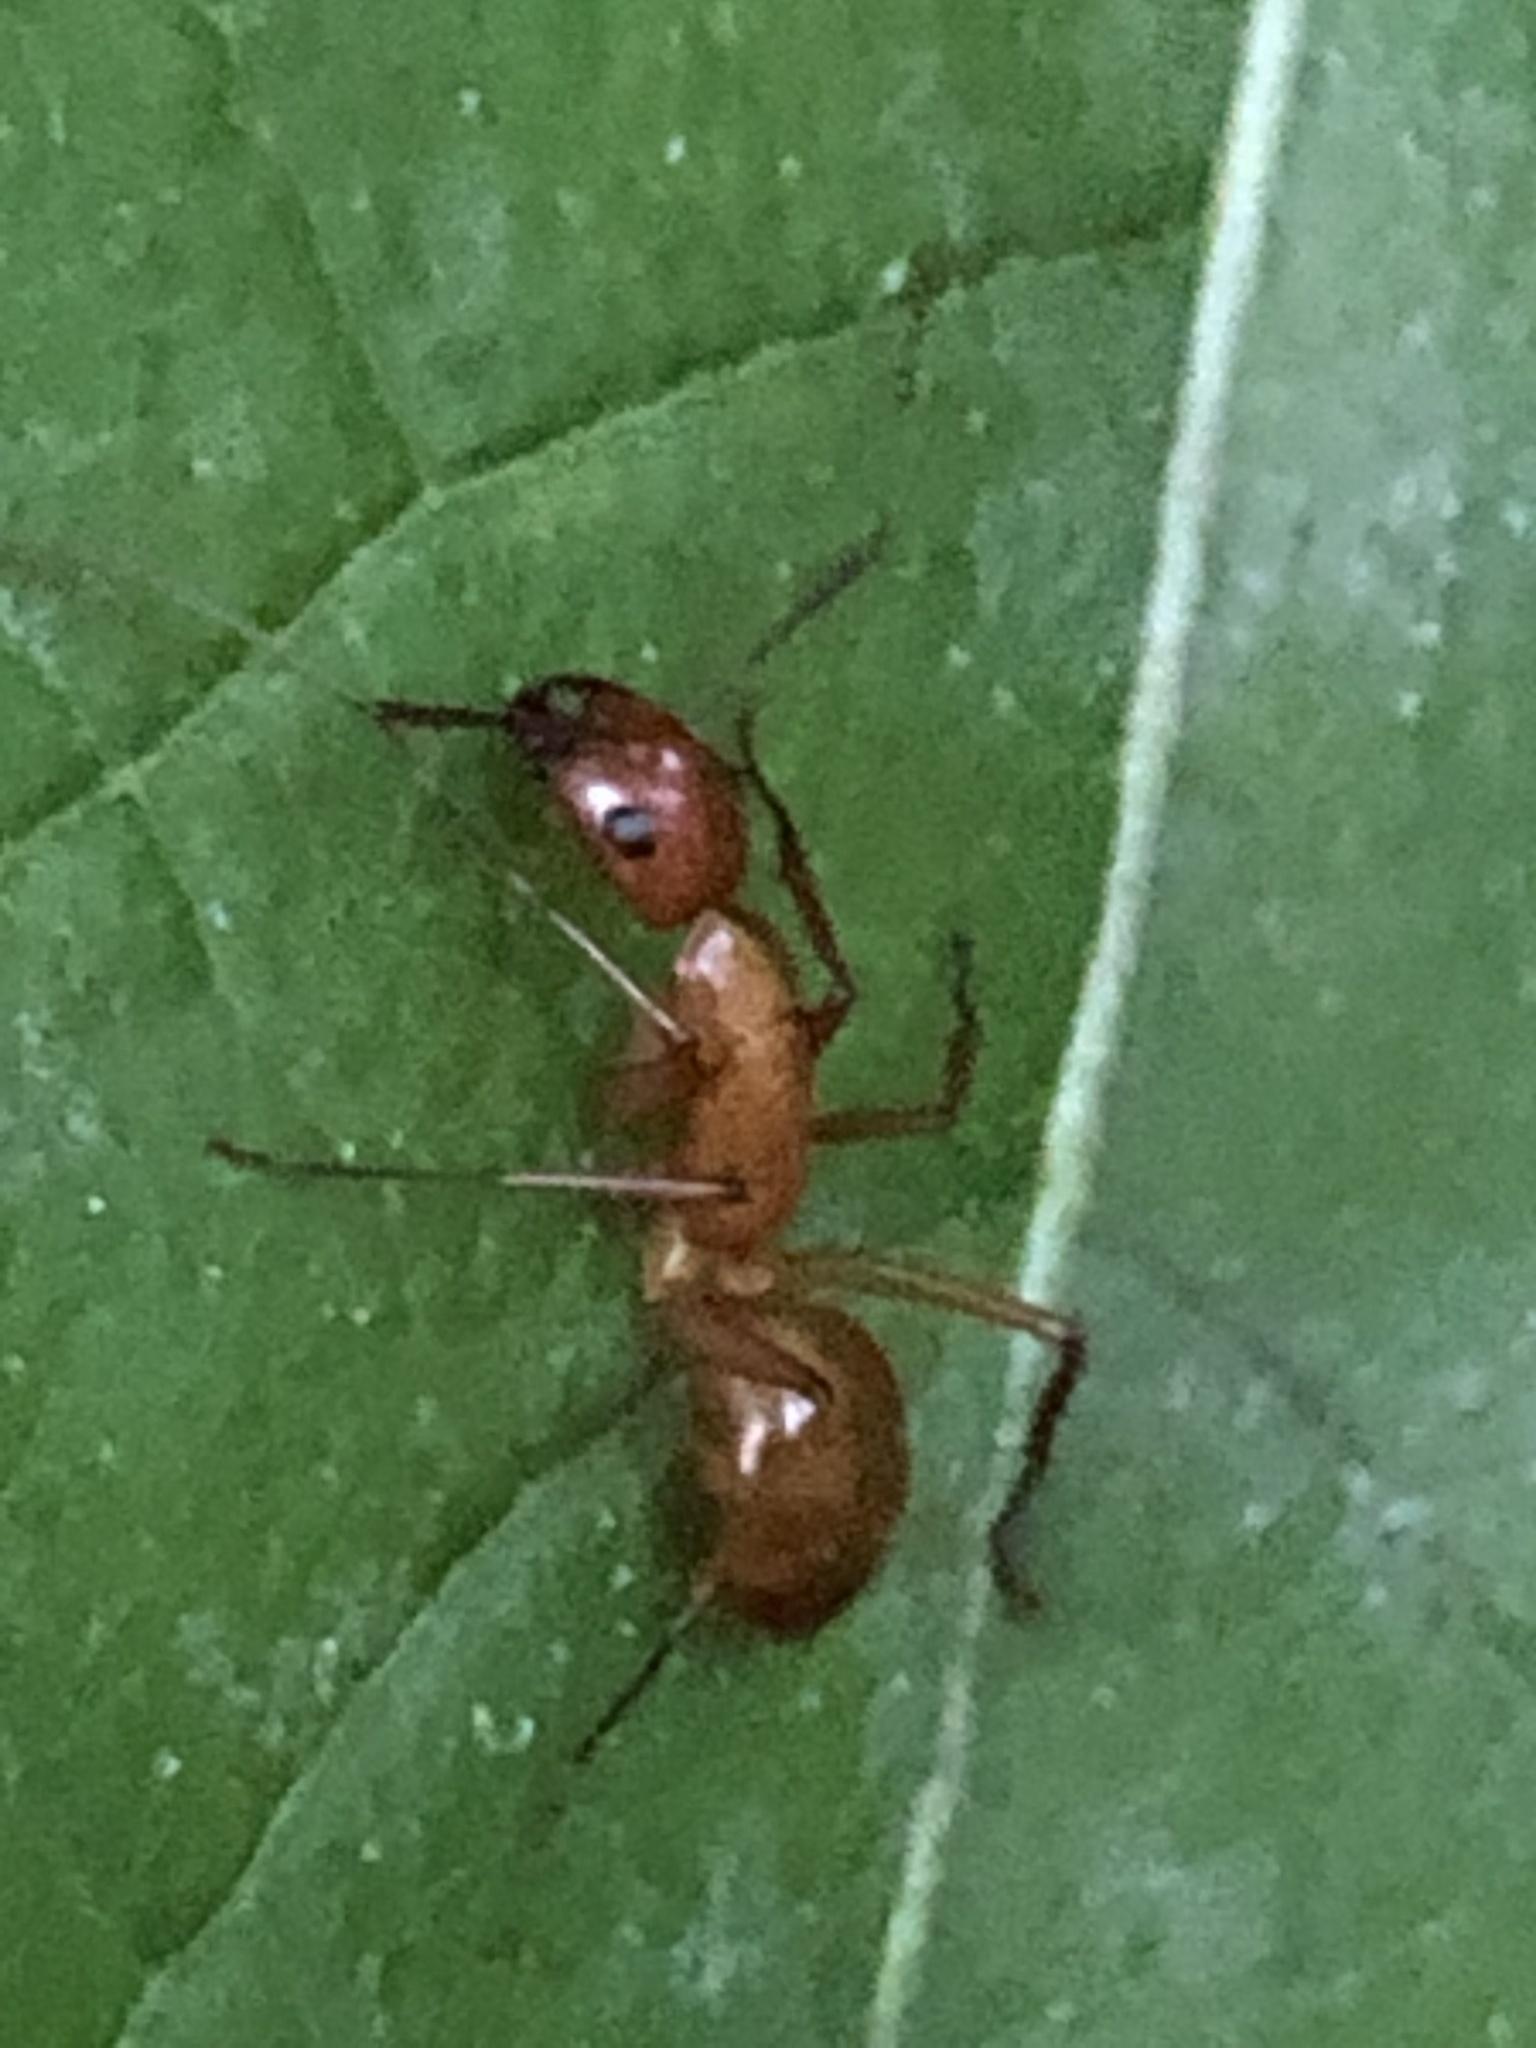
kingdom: Animalia
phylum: Arthropoda
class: Insecta
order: Hymenoptera
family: Formicidae
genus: Camponotus
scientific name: Camponotus castaneus
